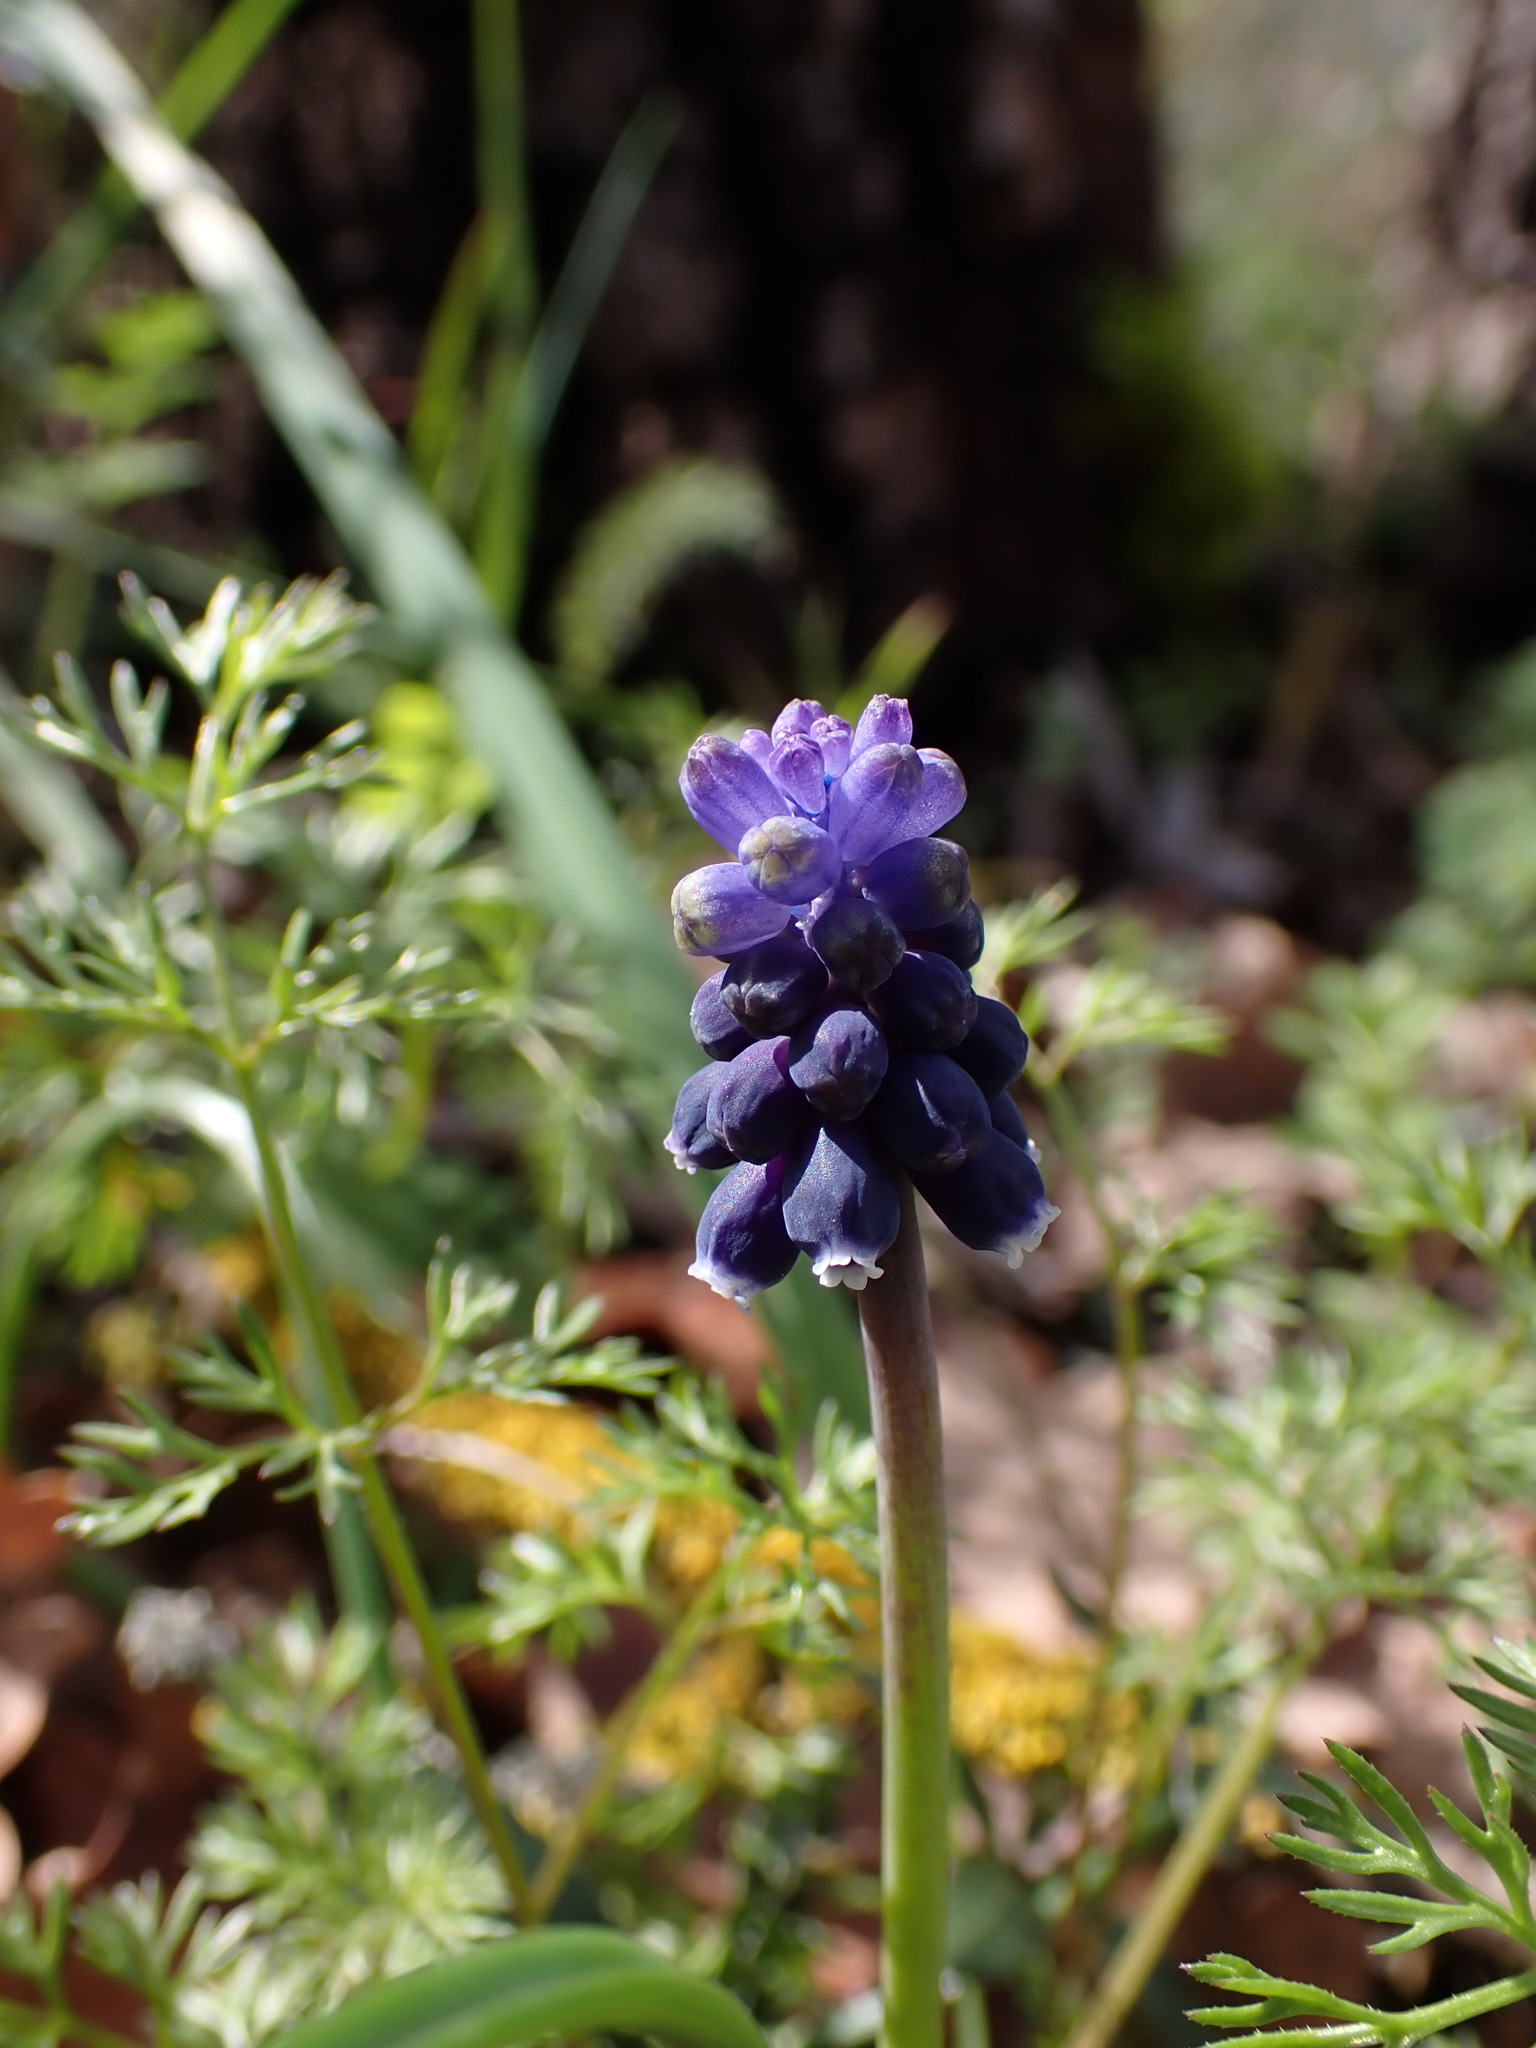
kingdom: Plantae
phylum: Tracheophyta
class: Liliopsida
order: Asparagales
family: Asparagaceae
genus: Muscari
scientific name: Muscari neglectum
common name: Grape-hyacinth
